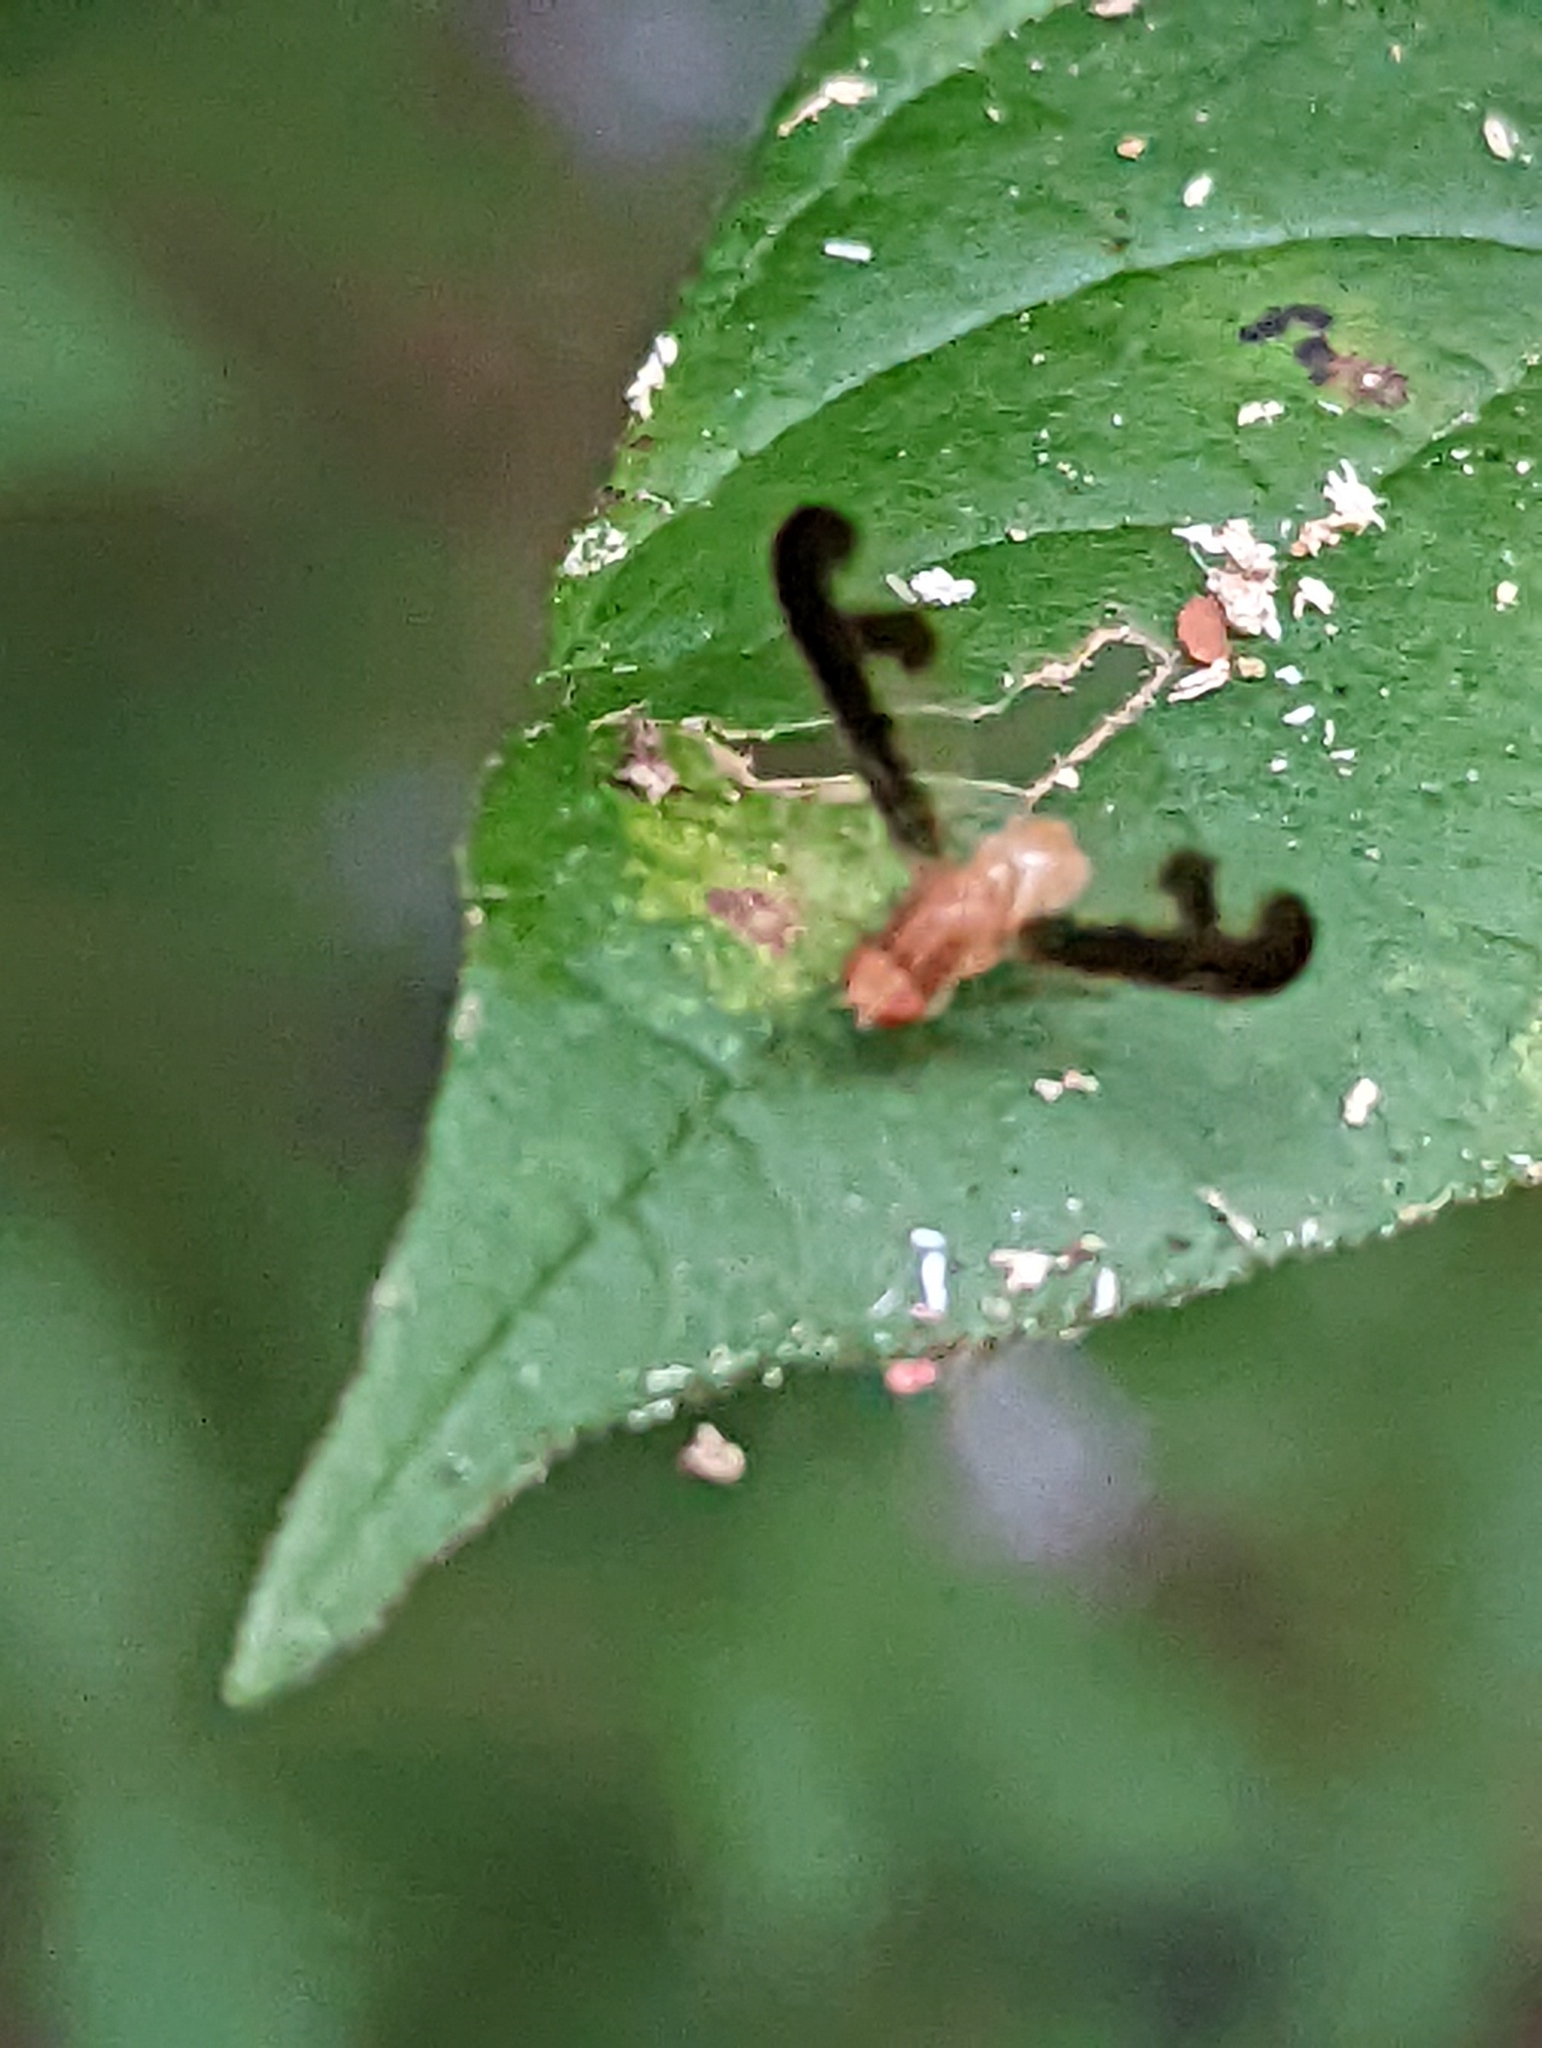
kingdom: Animalia
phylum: Arthropoda
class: Insecta
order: Diptera
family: Pallopteridae
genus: Toxonevra
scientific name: Toxonevra superba
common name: Antlered flutter fly
